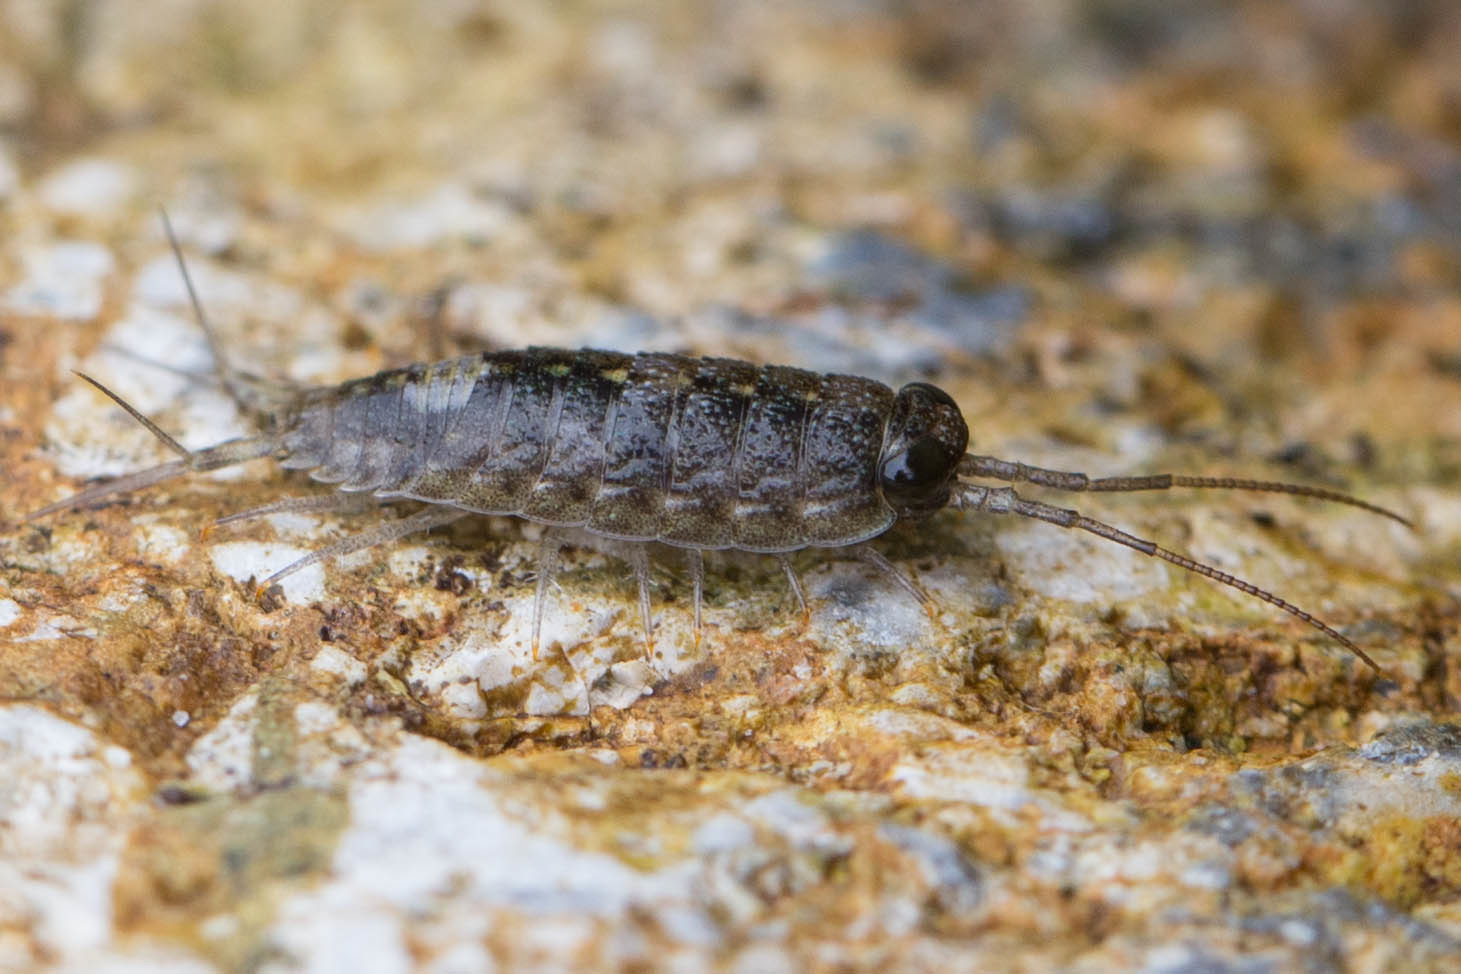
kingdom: Animalia
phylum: Arthropoda
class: Malacostraca
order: Isopoda
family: Ligiidae
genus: Ligia
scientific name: Ligia occidentalis
